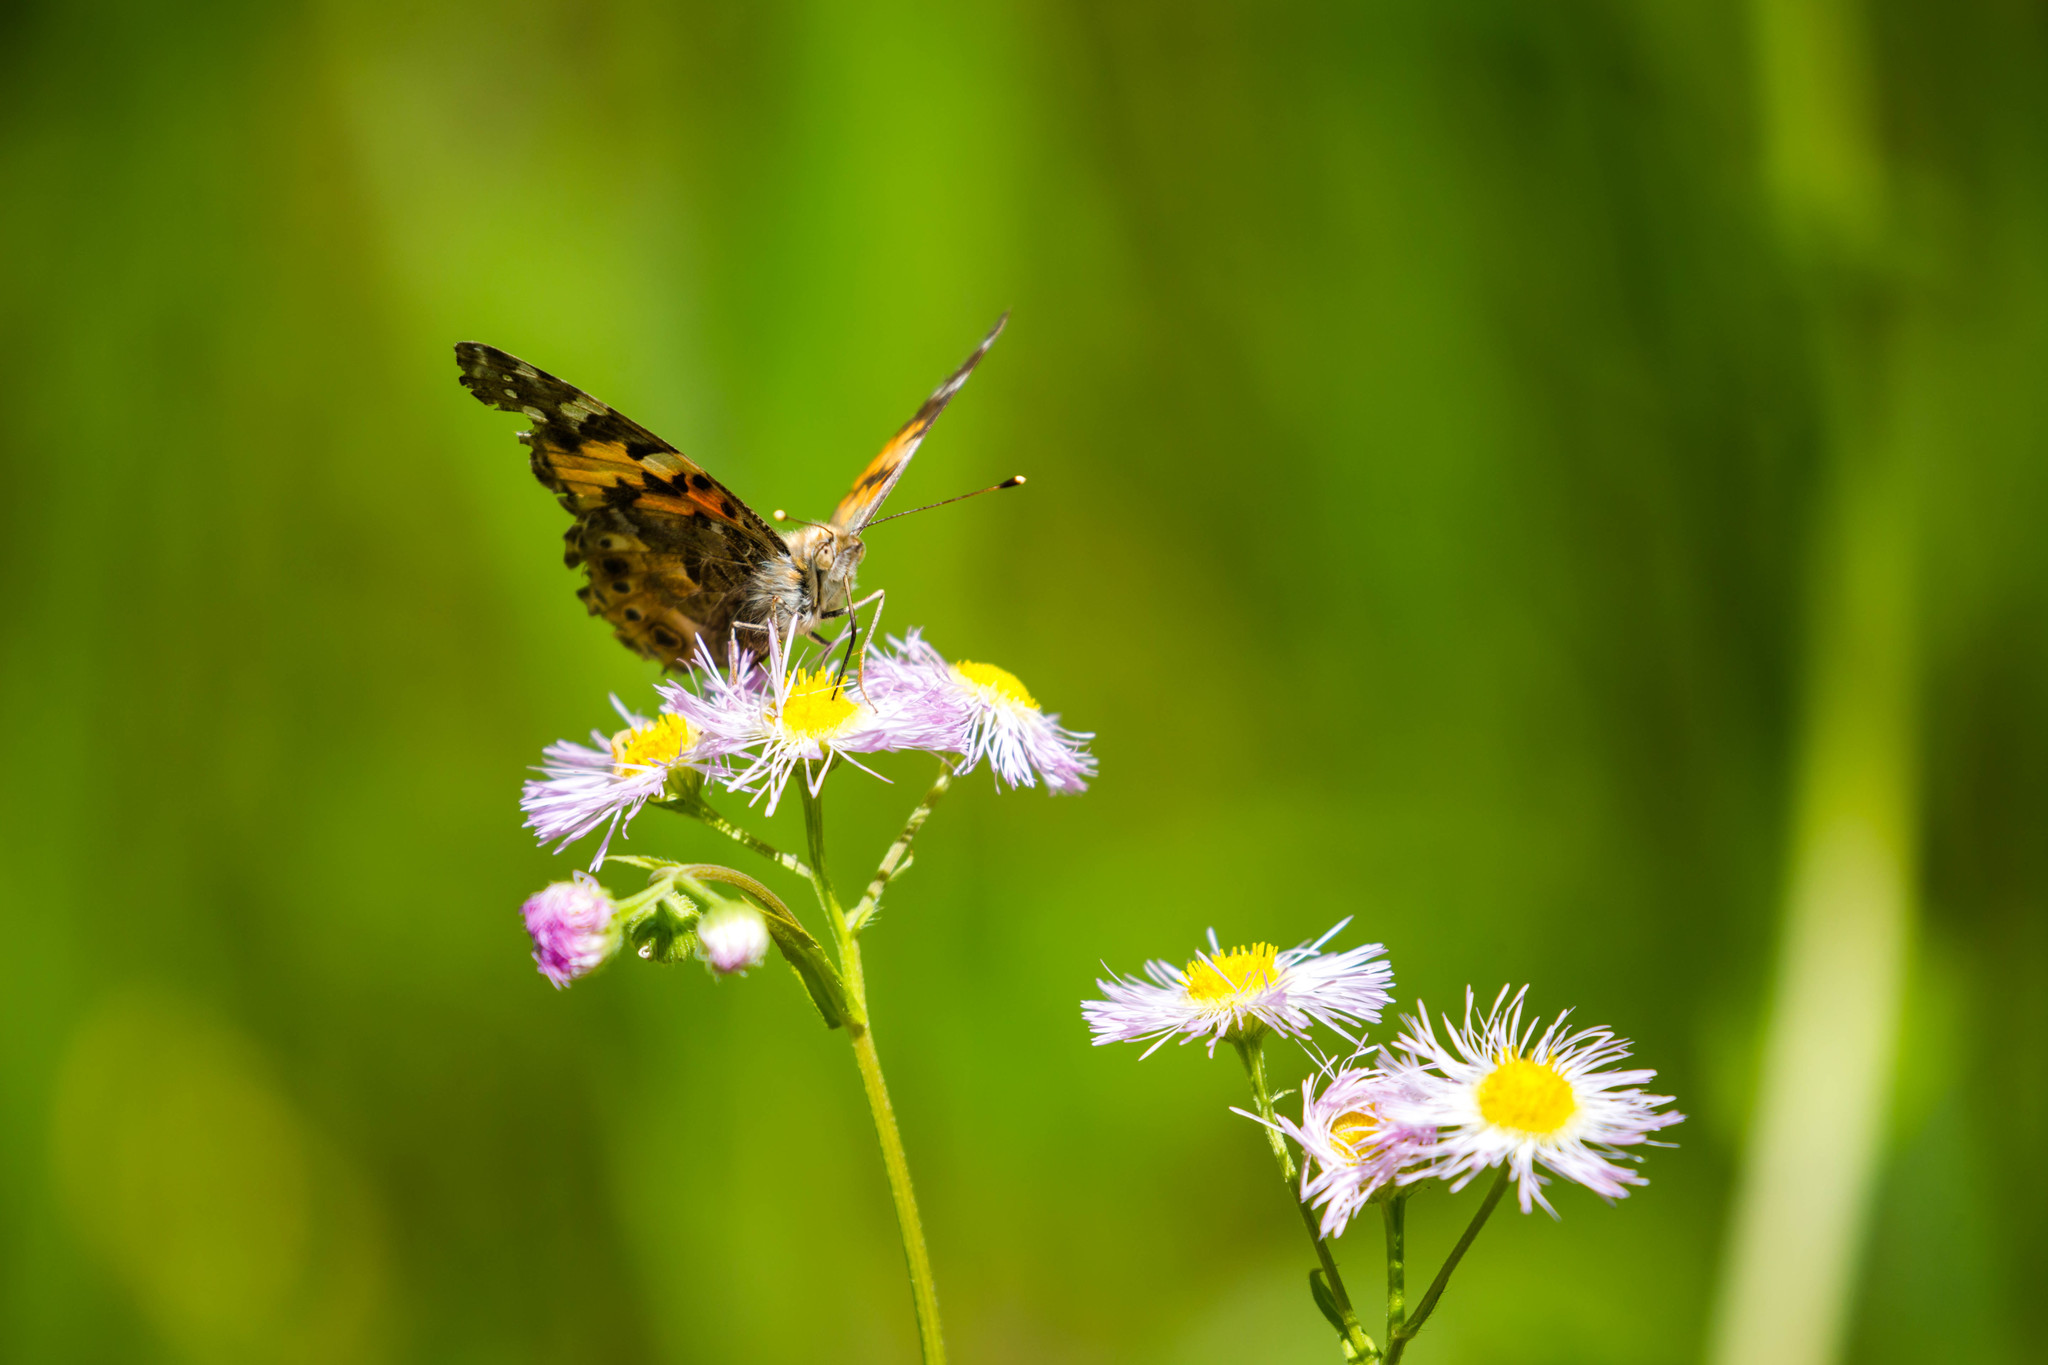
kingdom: Animalia
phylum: Arthropoda
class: Insecta
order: Lepidoptera
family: Nymphalidae
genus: Vanessa
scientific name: Vanessa cardui
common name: Painted lady
